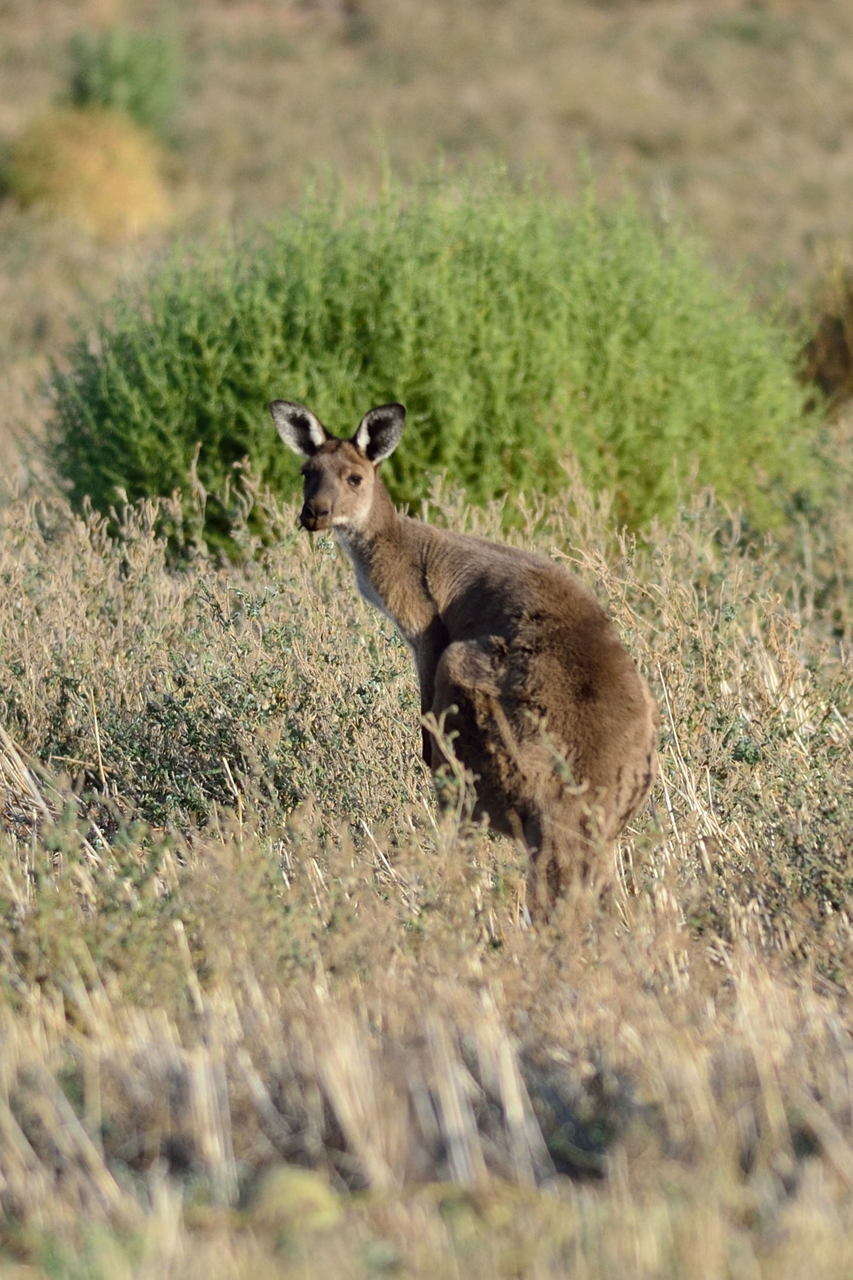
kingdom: Animalia
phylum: Chordata
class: Mammalia
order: Diprotodontia
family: Macropodidae
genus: Macropus
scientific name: Macropus fuliginosus
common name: Western grey kangaroo
